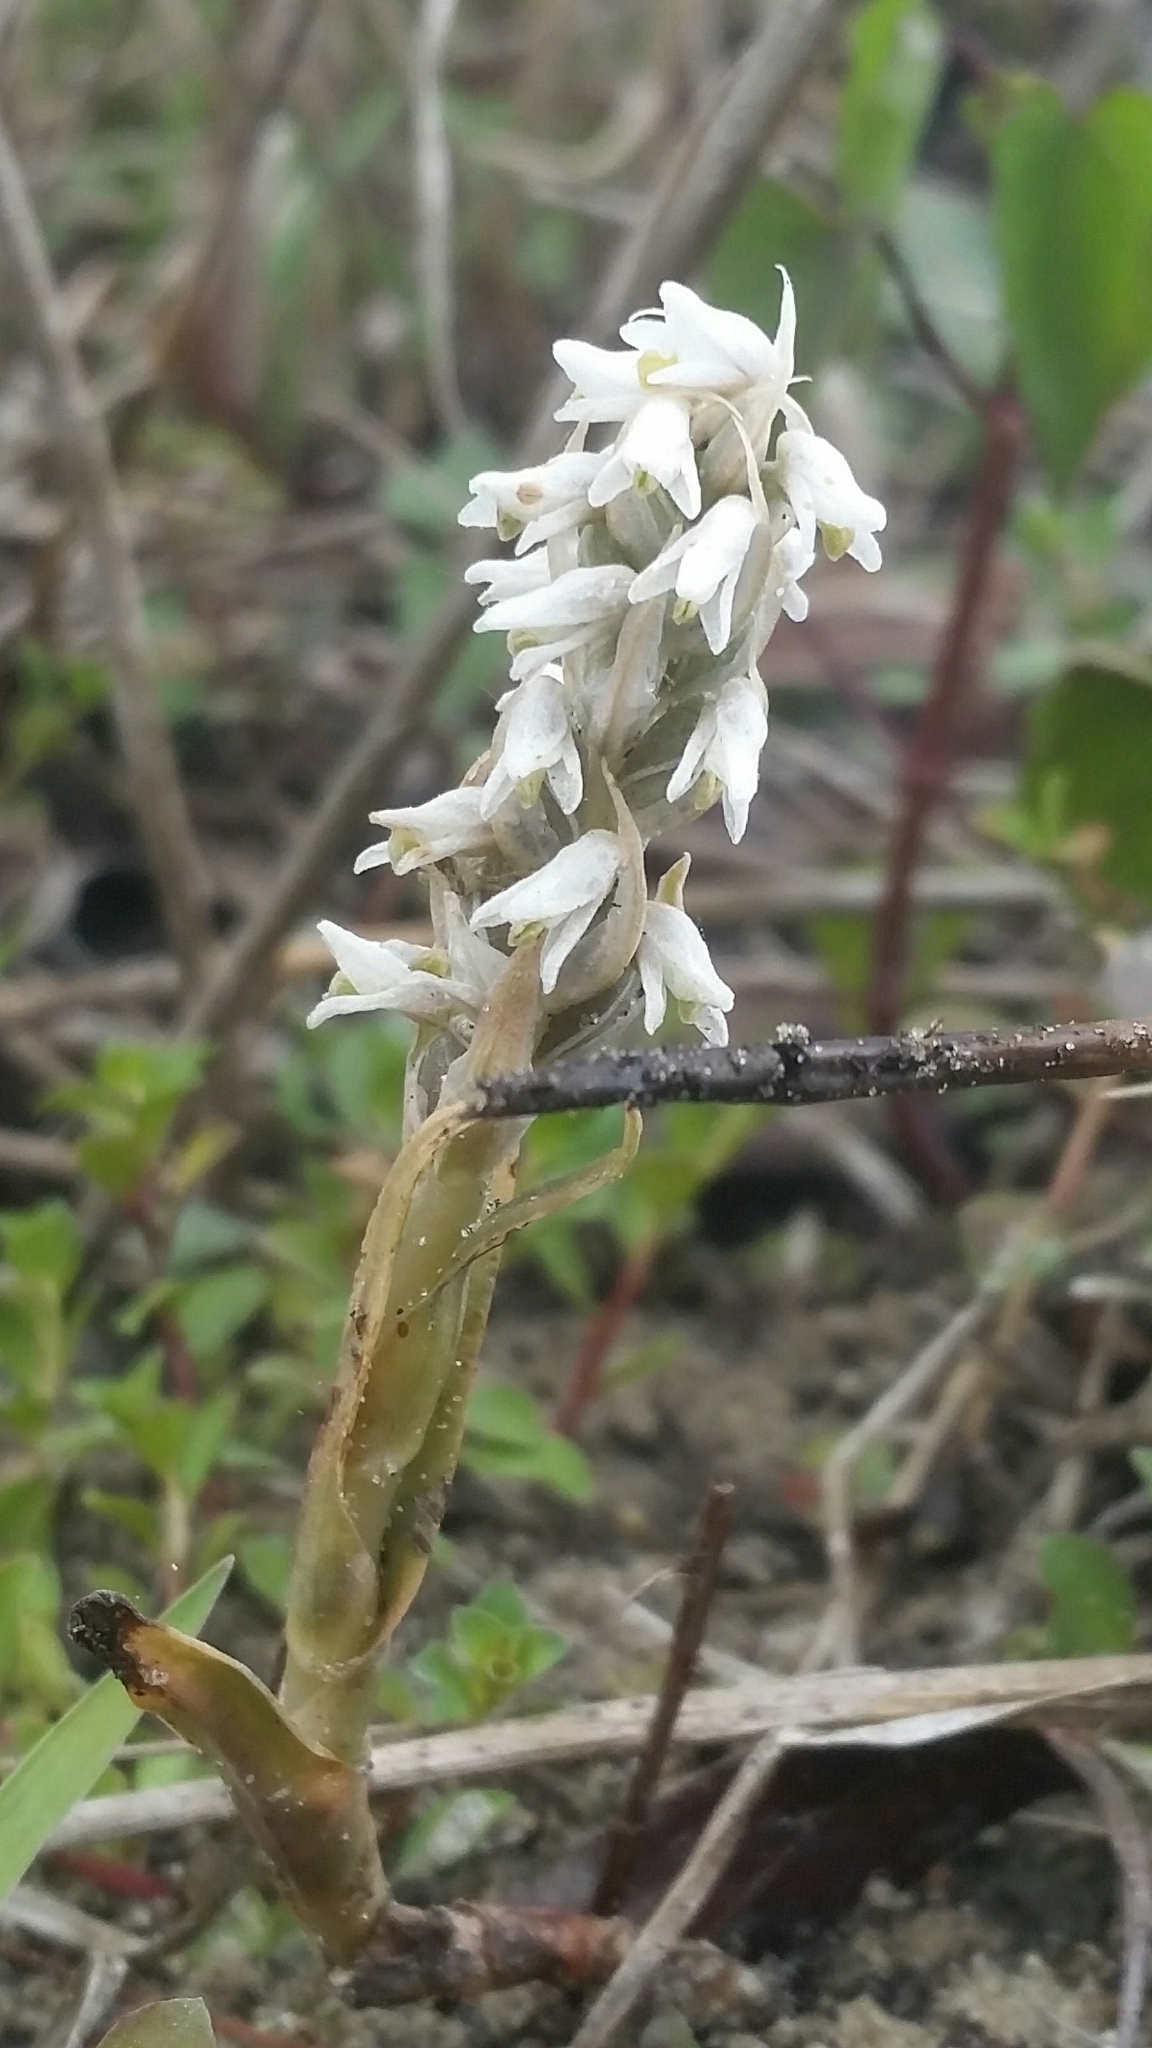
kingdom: Plantae
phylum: Tracheophyta
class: Liliopsida
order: Asparagales
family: Orchidaceae
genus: Zeuxine
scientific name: Zeuxine strateumatica
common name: Soldier's orchid
